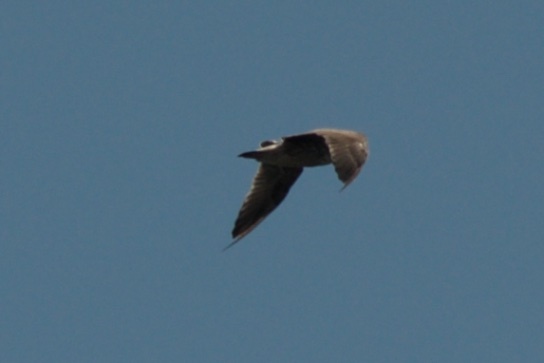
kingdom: Animalia
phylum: Chordata
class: Aves
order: Charadriiformes
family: Laridae
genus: Larus
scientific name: Larus heermanni
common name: Heermann's gull
